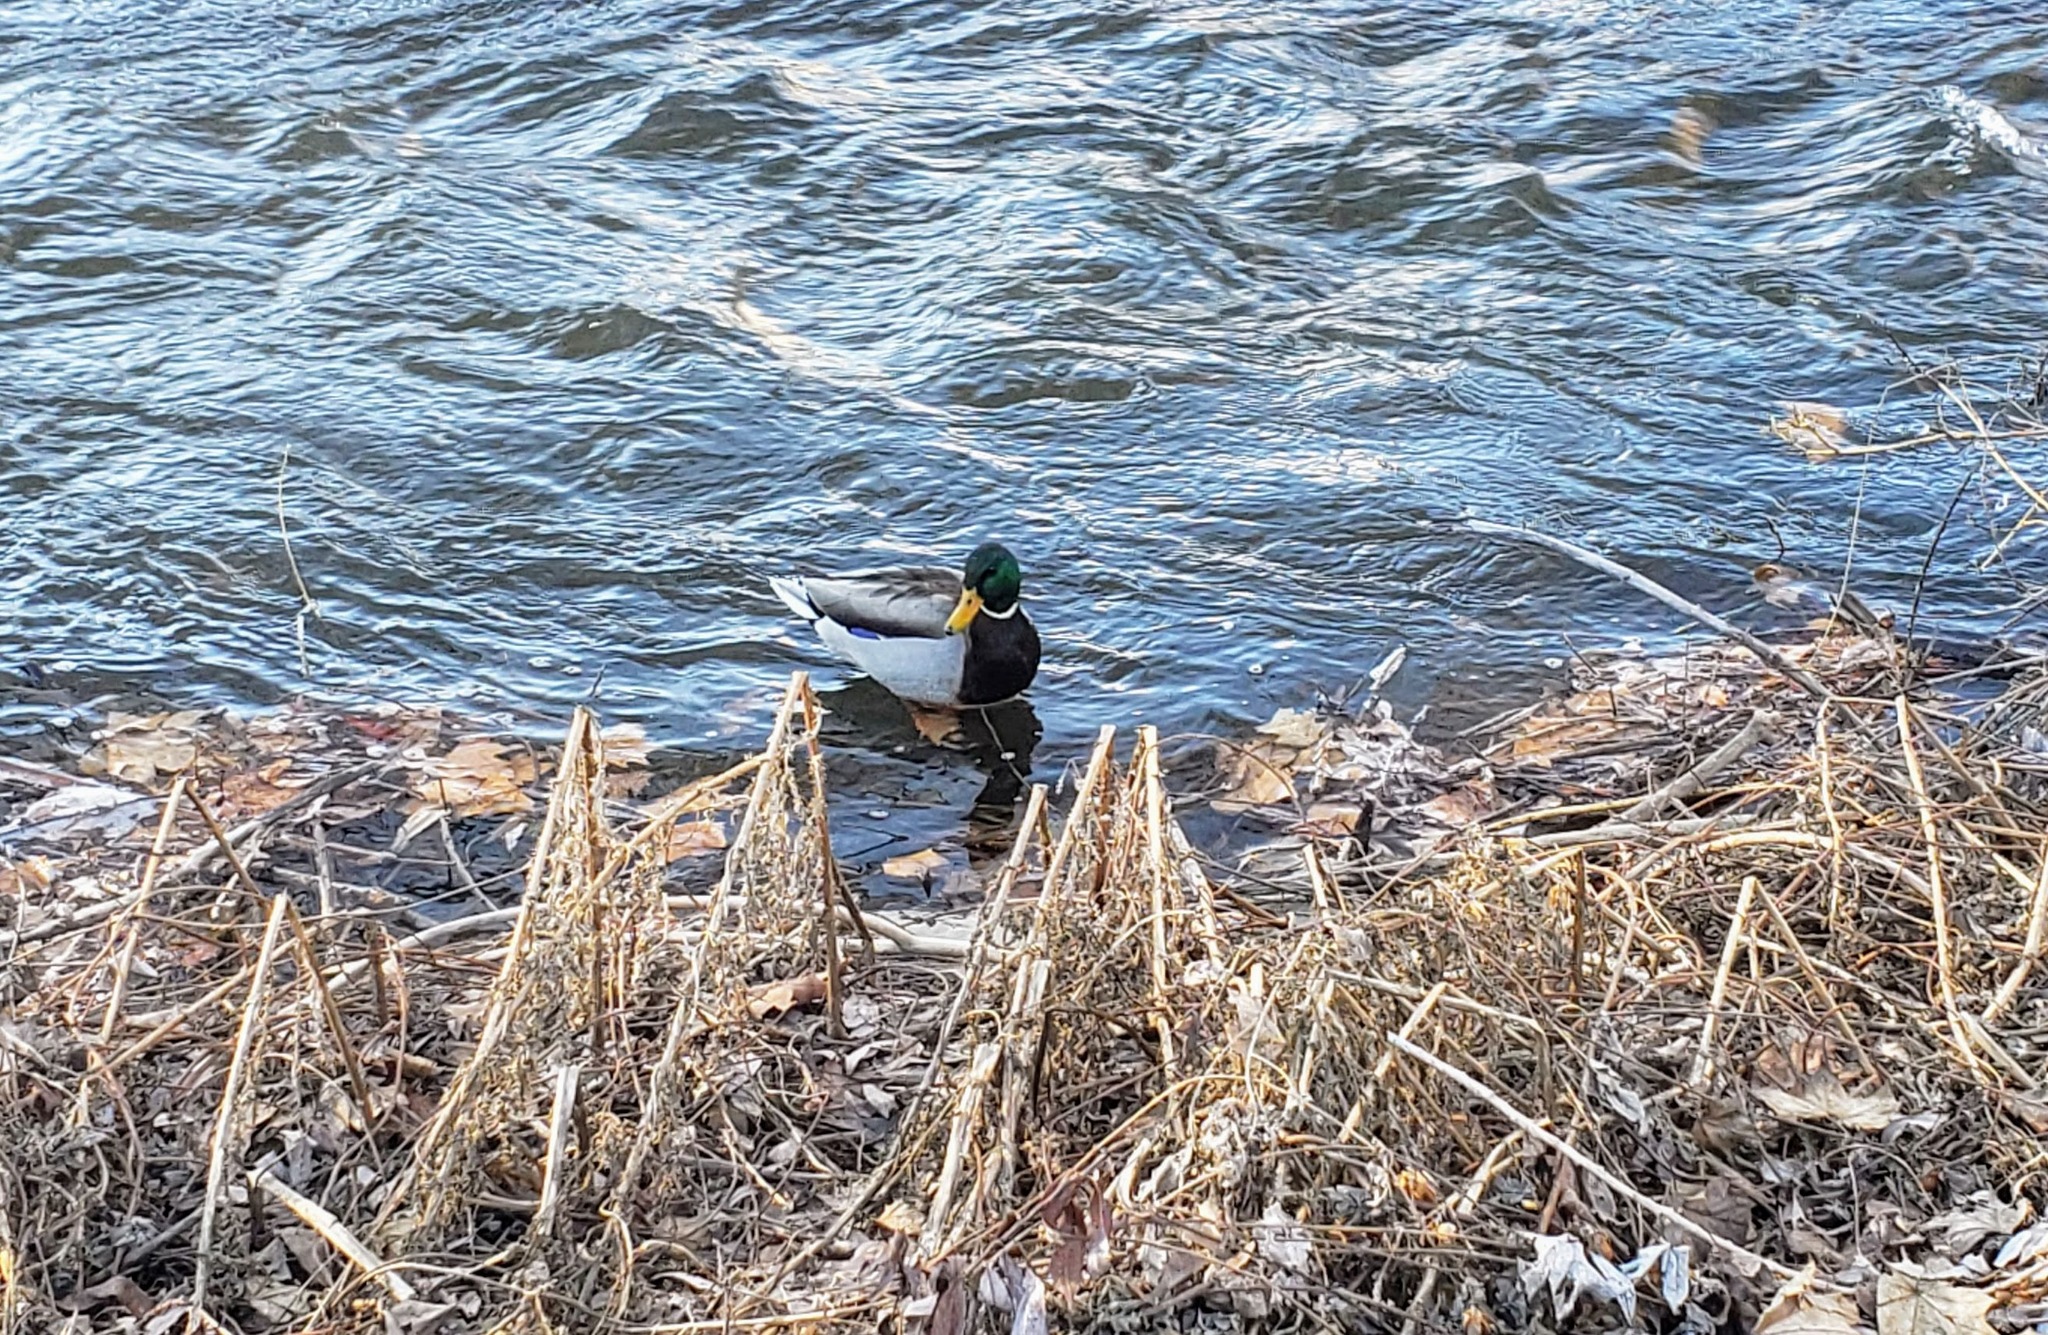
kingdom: Animalia
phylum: Chordata
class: Aves
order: Anseriformes
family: Anatidae
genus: Anas
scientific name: Anas platyrhynchos
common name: Mallard
